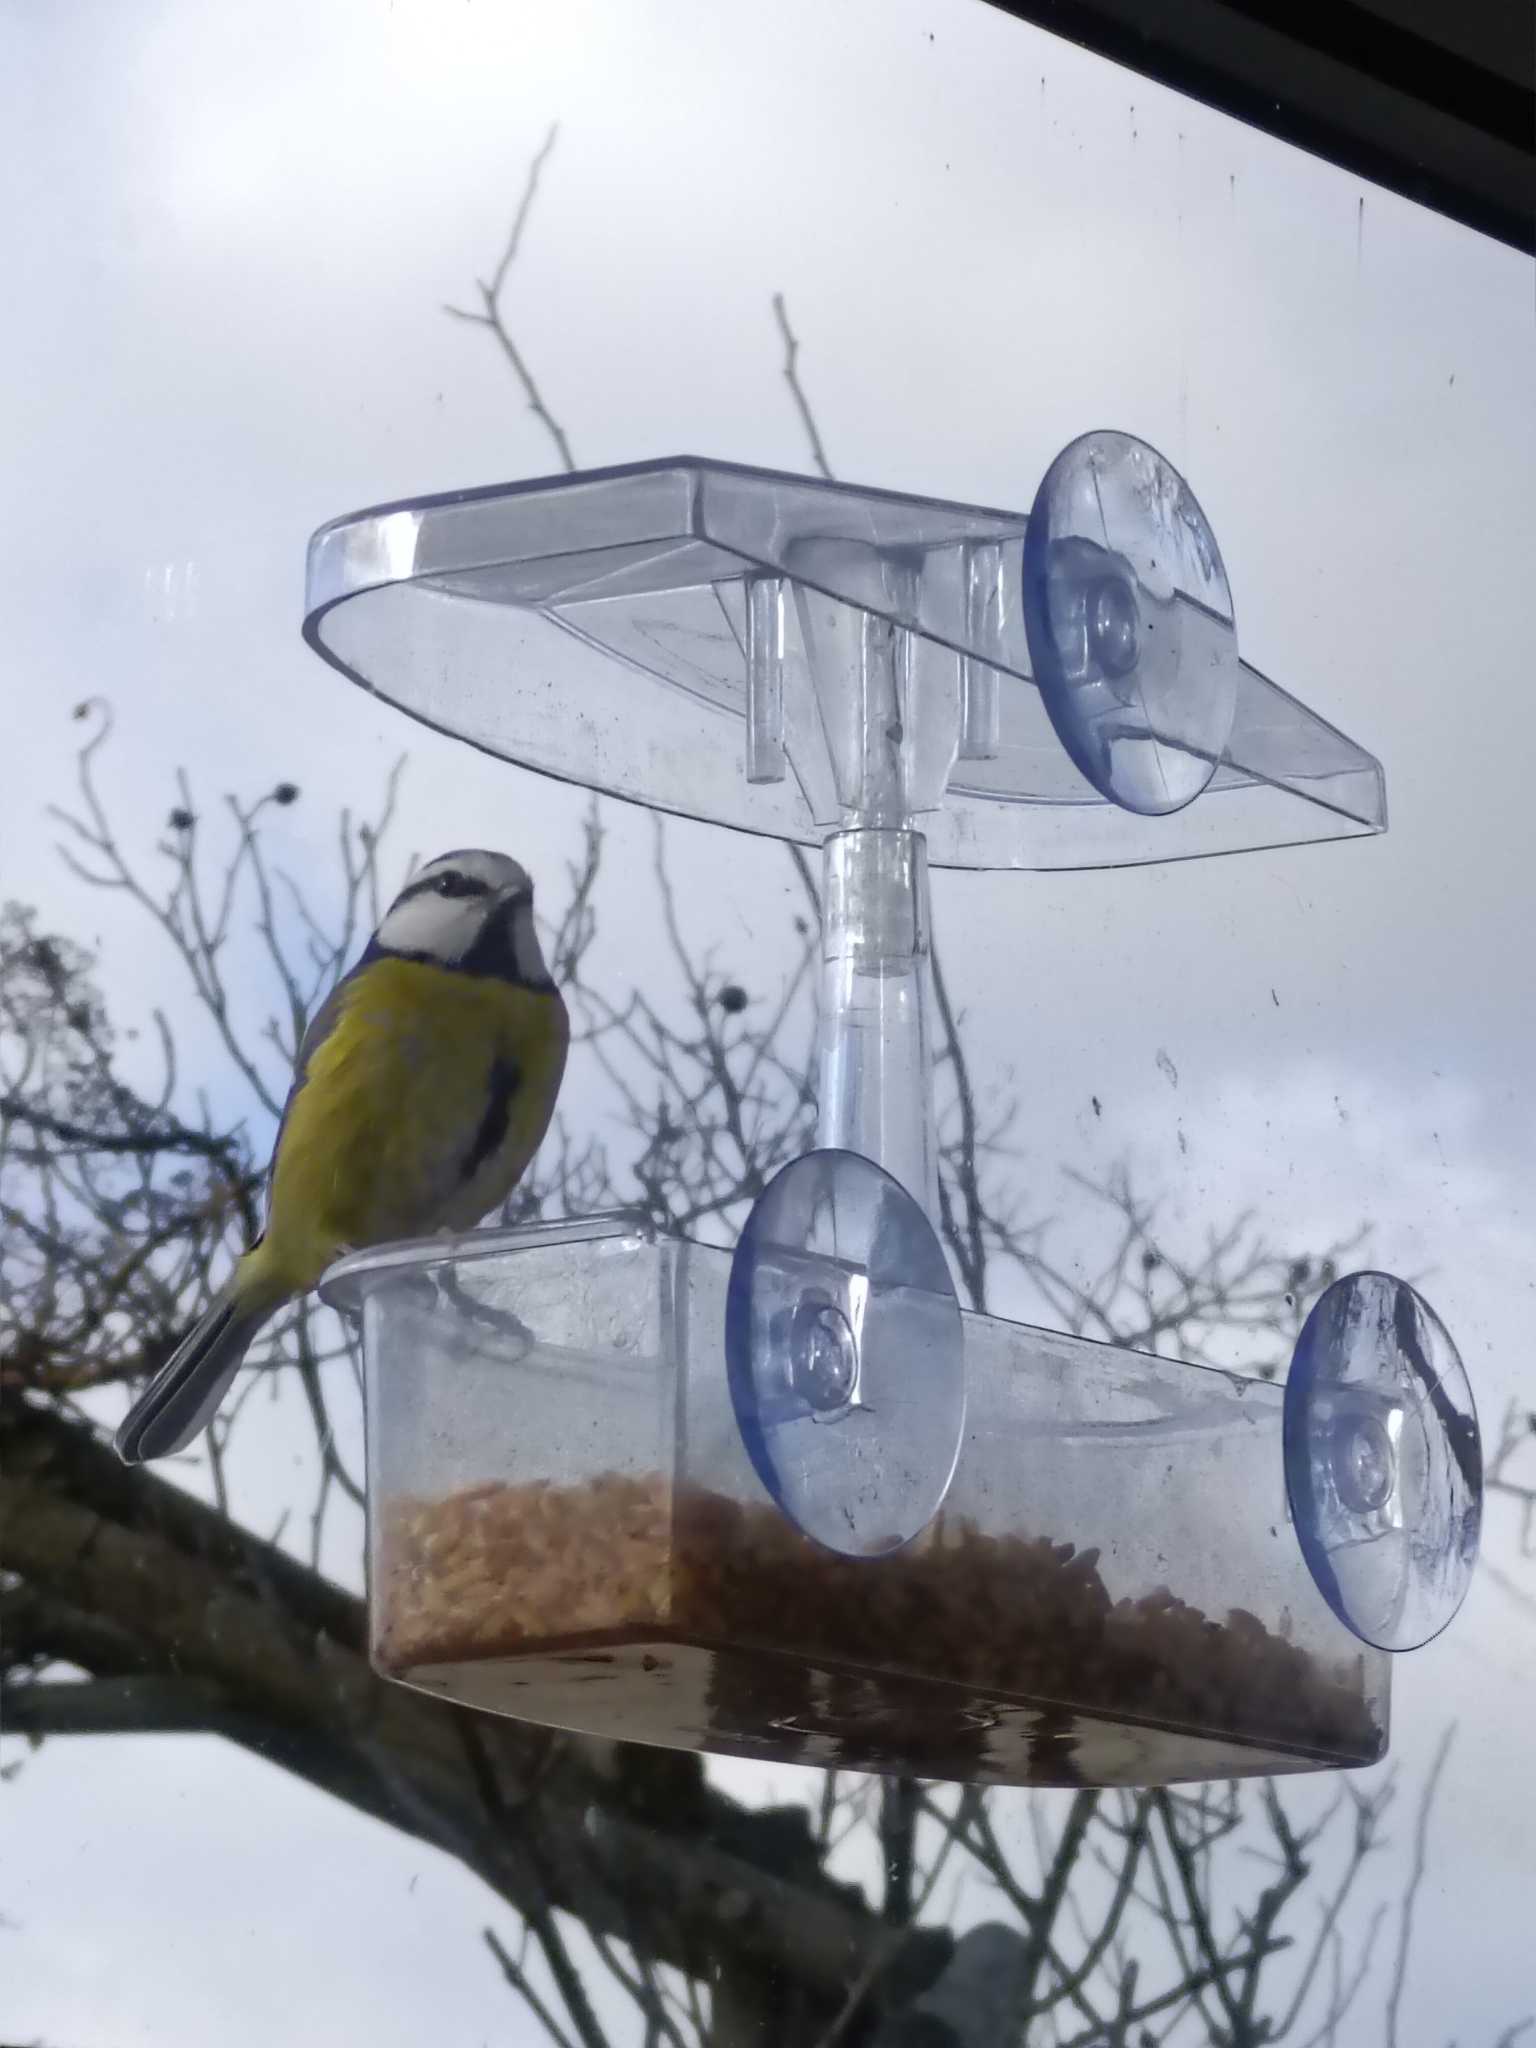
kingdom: Animalia
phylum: Chordata
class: Aves
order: Passeriformes
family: Paridae
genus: Cyanistes
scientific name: Cyanistes caeruleus
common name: Eurasian blue tit
